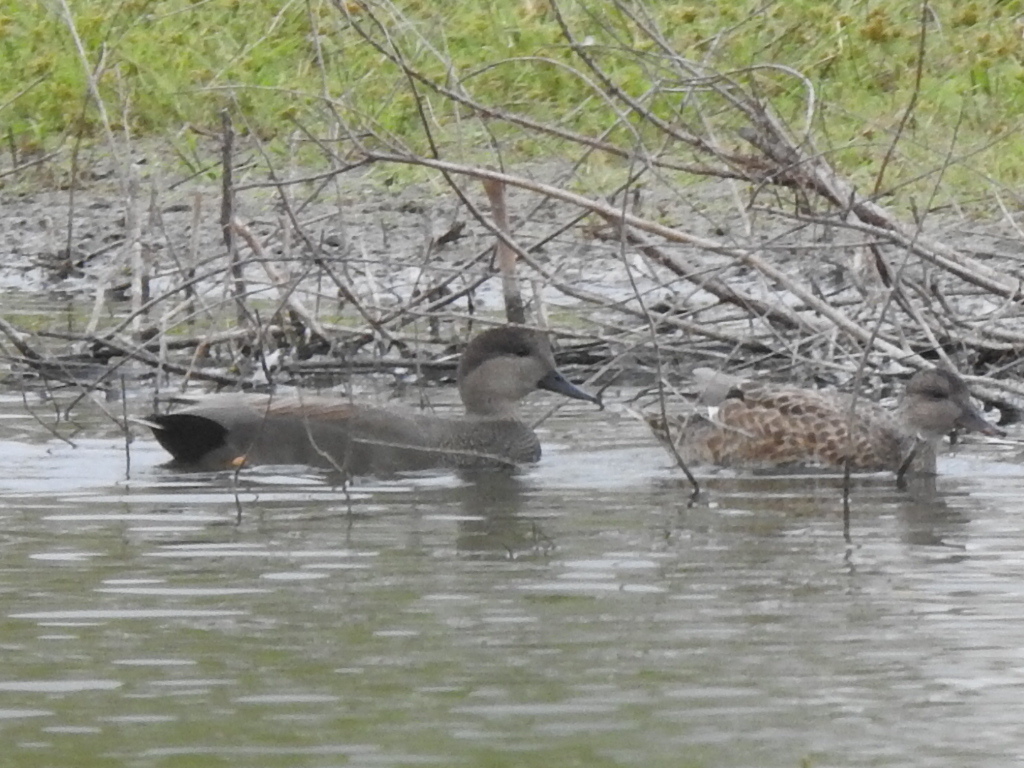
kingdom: Animalia
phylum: Chordata
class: Aves
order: Anseriformes
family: Anatidae
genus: Mareca
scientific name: Mareca strepera
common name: Gadwall
